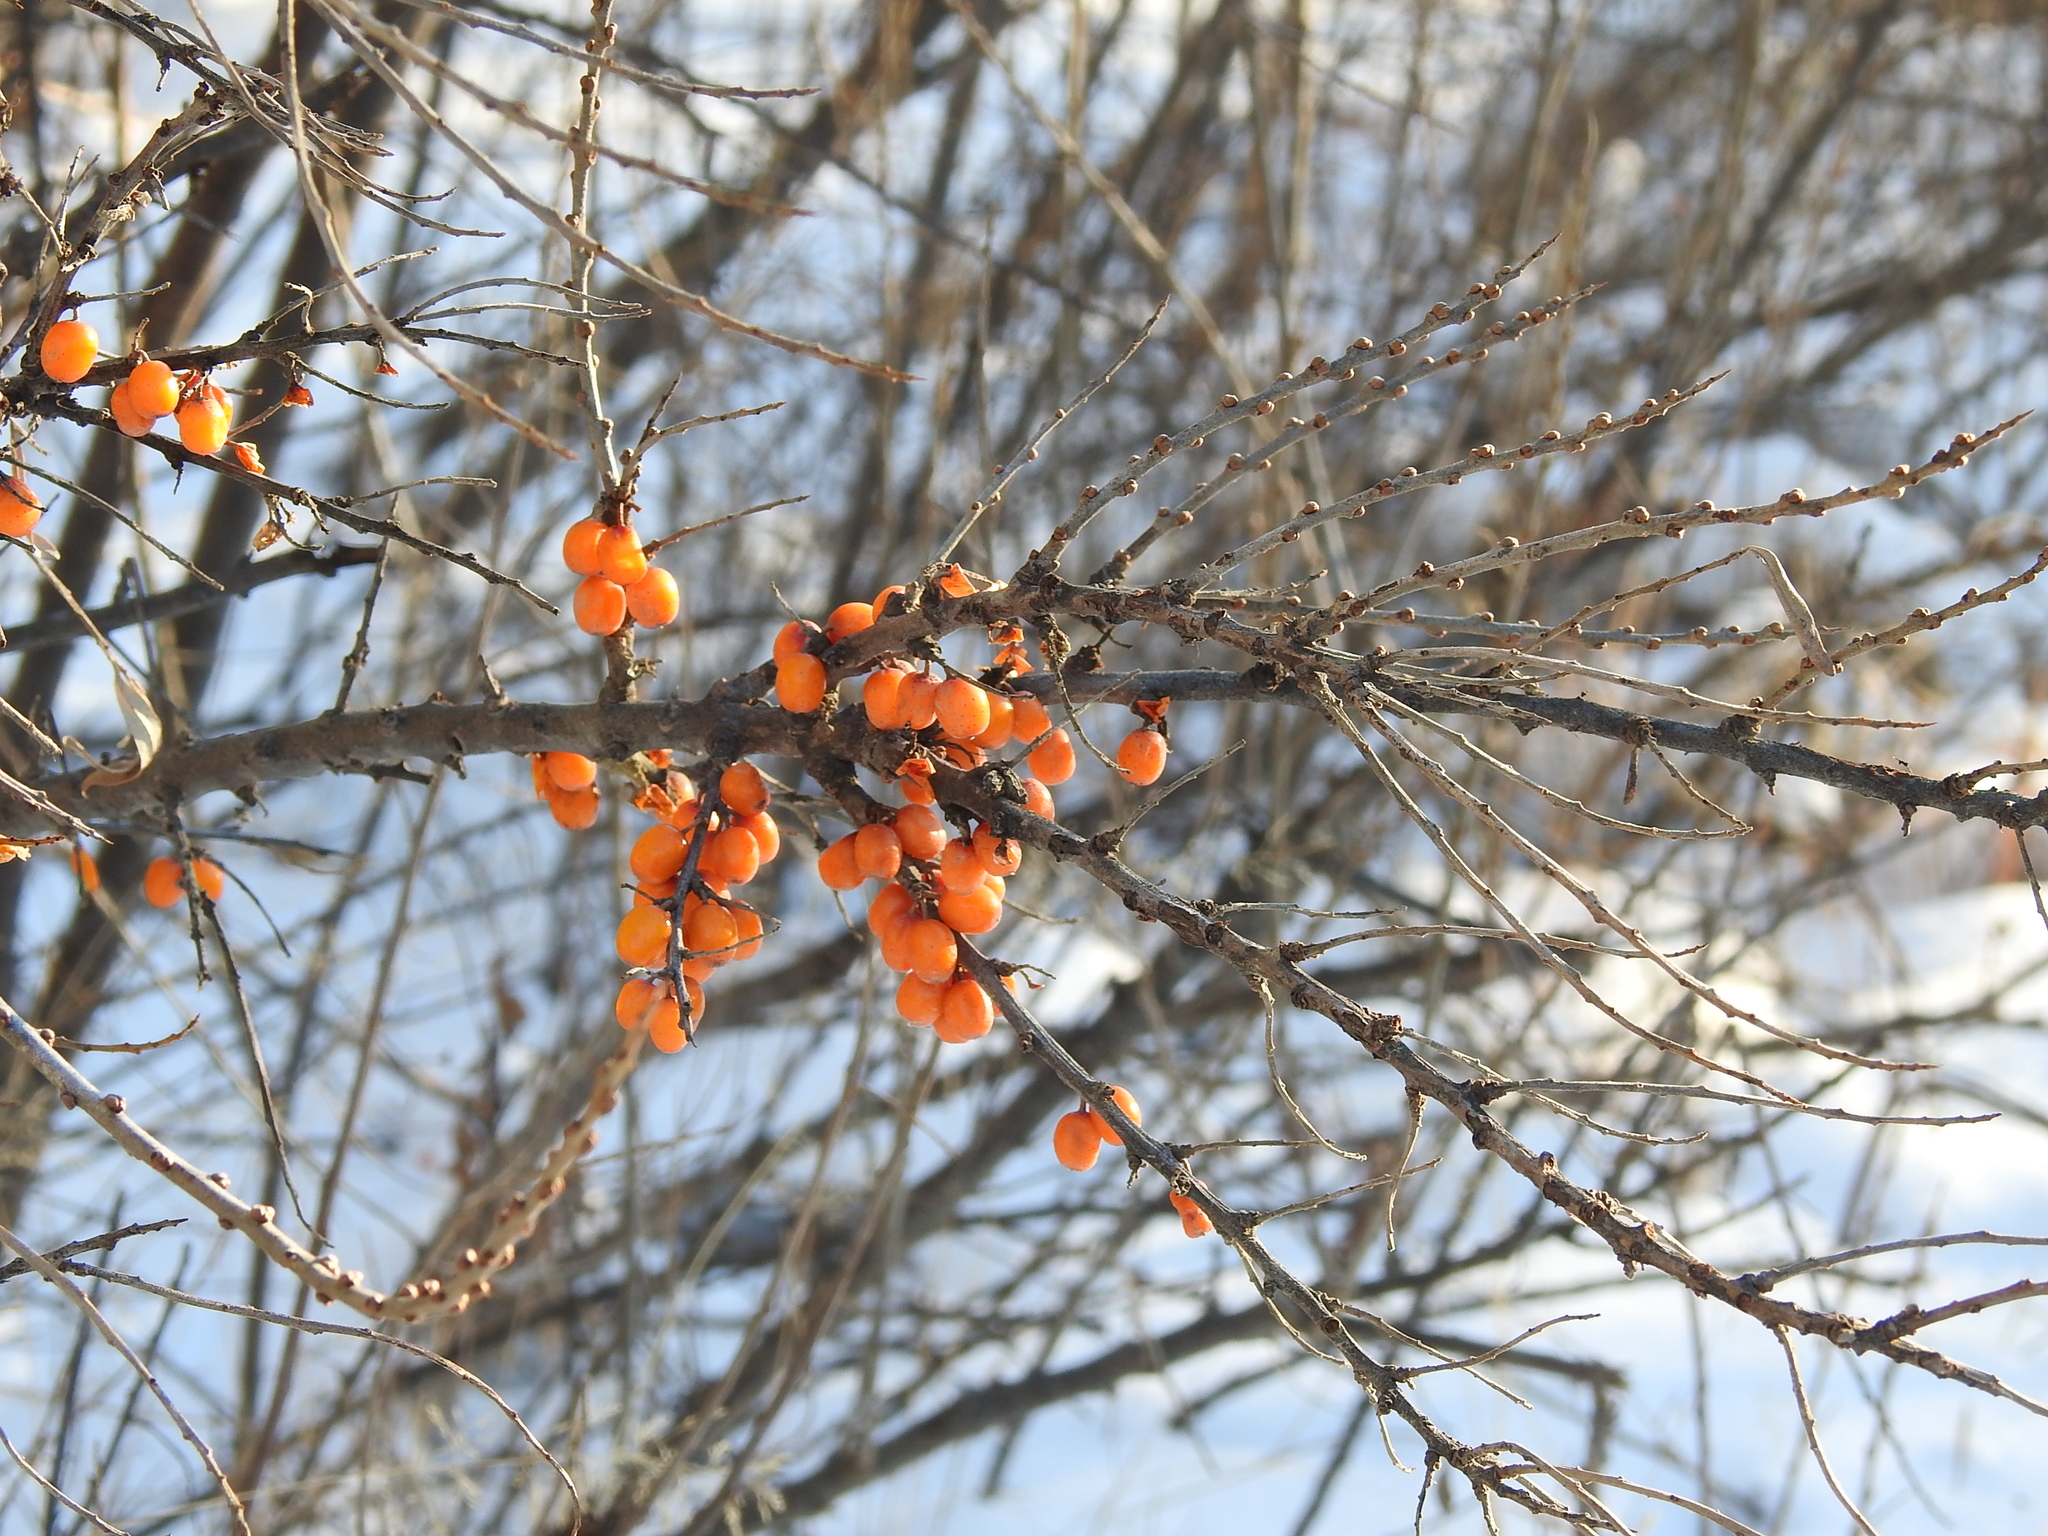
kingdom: Plantae
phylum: Tracheophyta
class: Magnoliopsida
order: Rosales
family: Elaeagnaceae
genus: Hippophae
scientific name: Hippophae rhamnoides
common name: Sea-buckthorn
